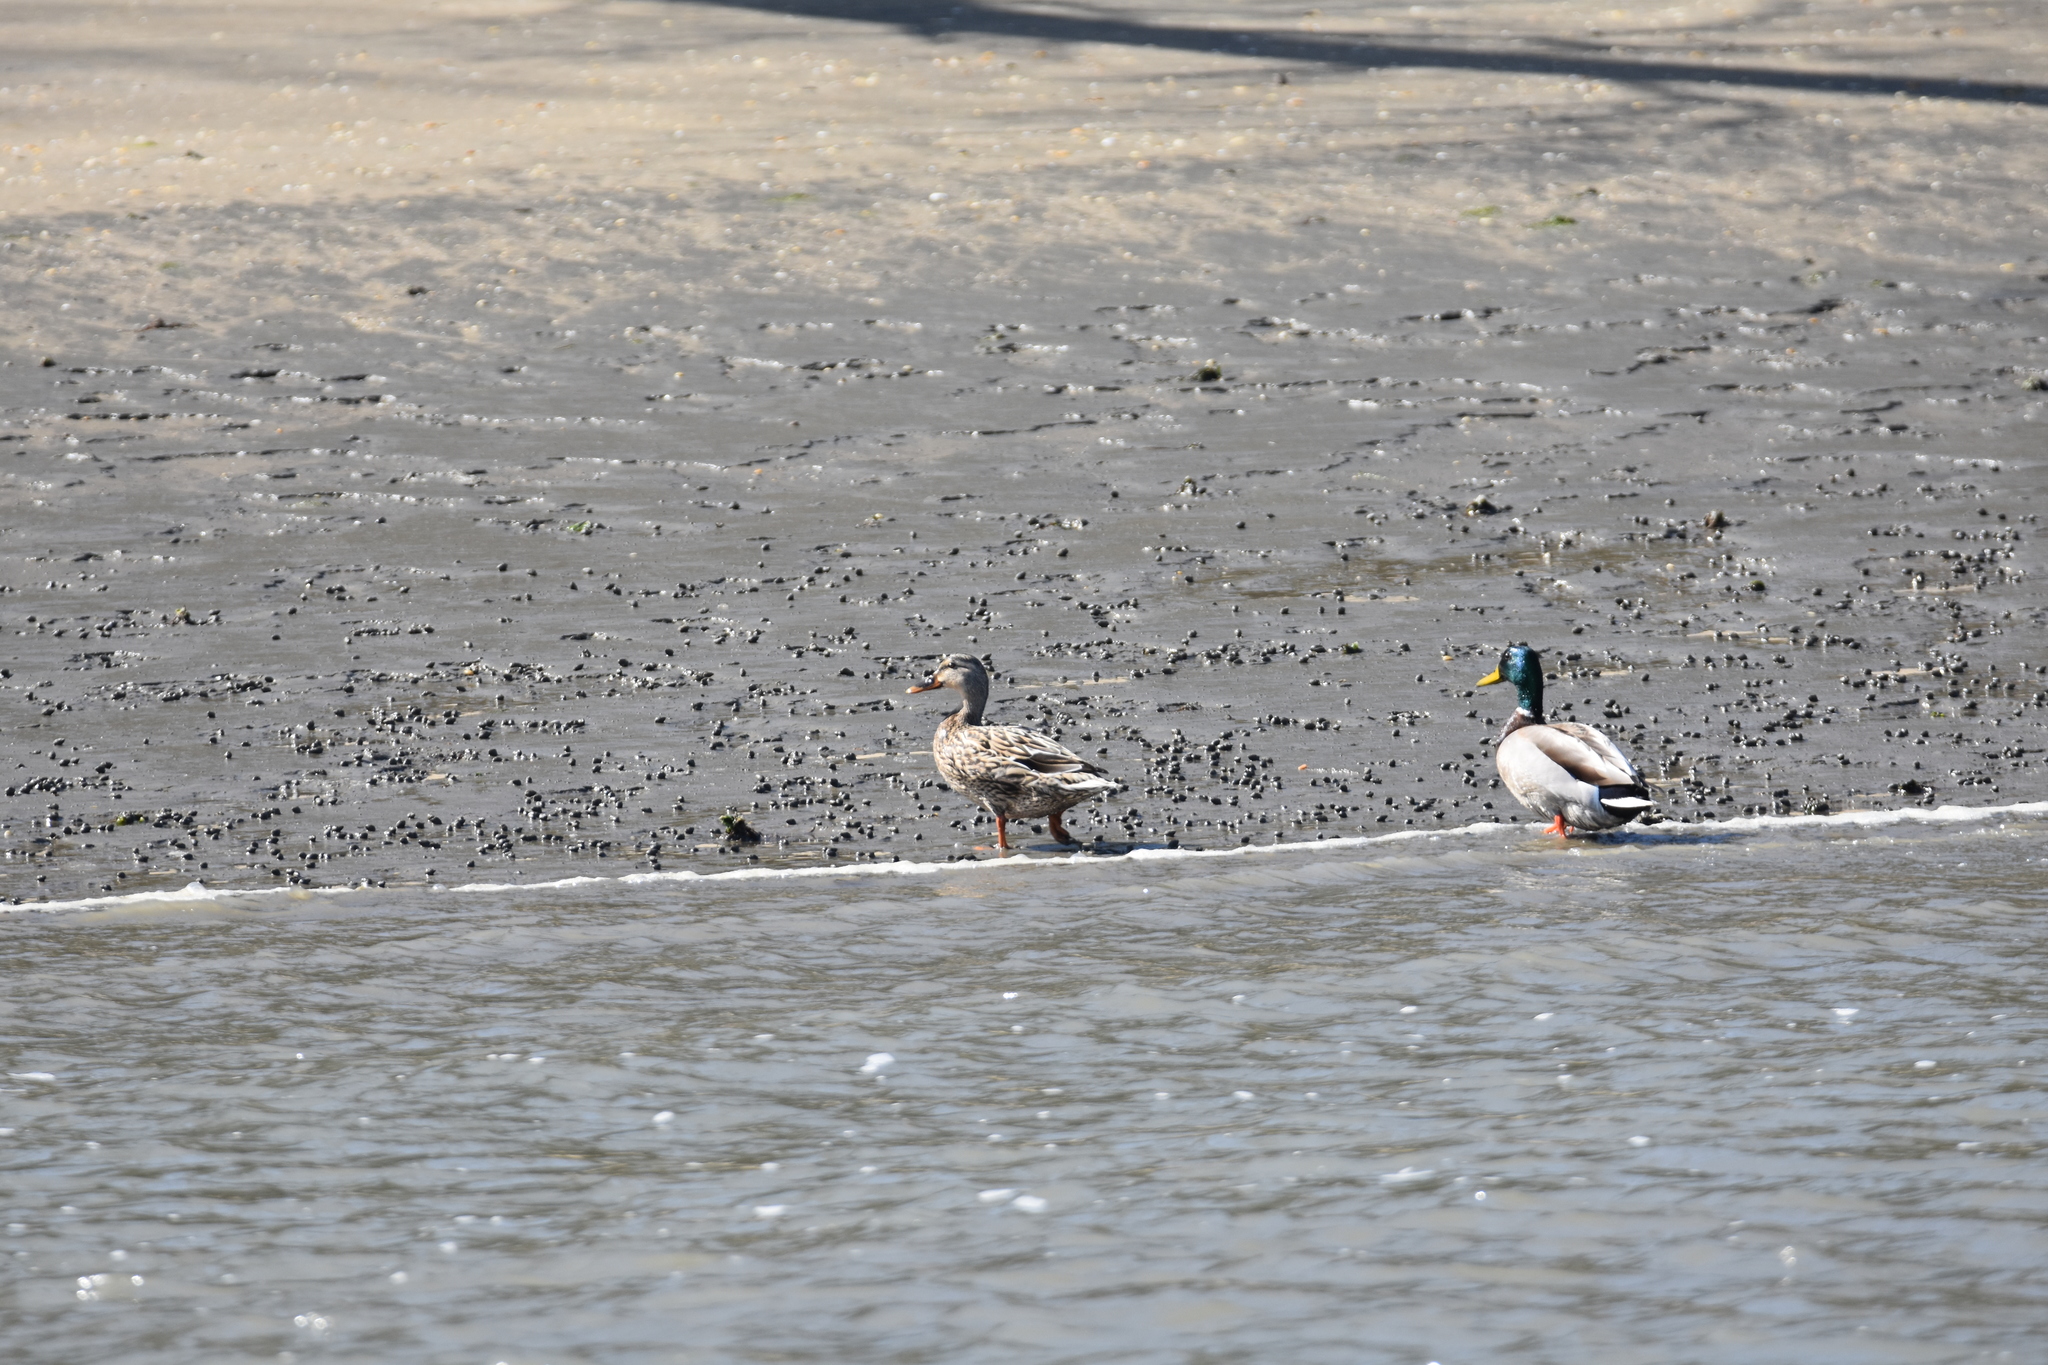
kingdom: Animalia
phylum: Chordata
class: Aves
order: Anseriformes
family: Anatidae
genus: Anas
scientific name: Anas platyrhynchos
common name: Mallard
